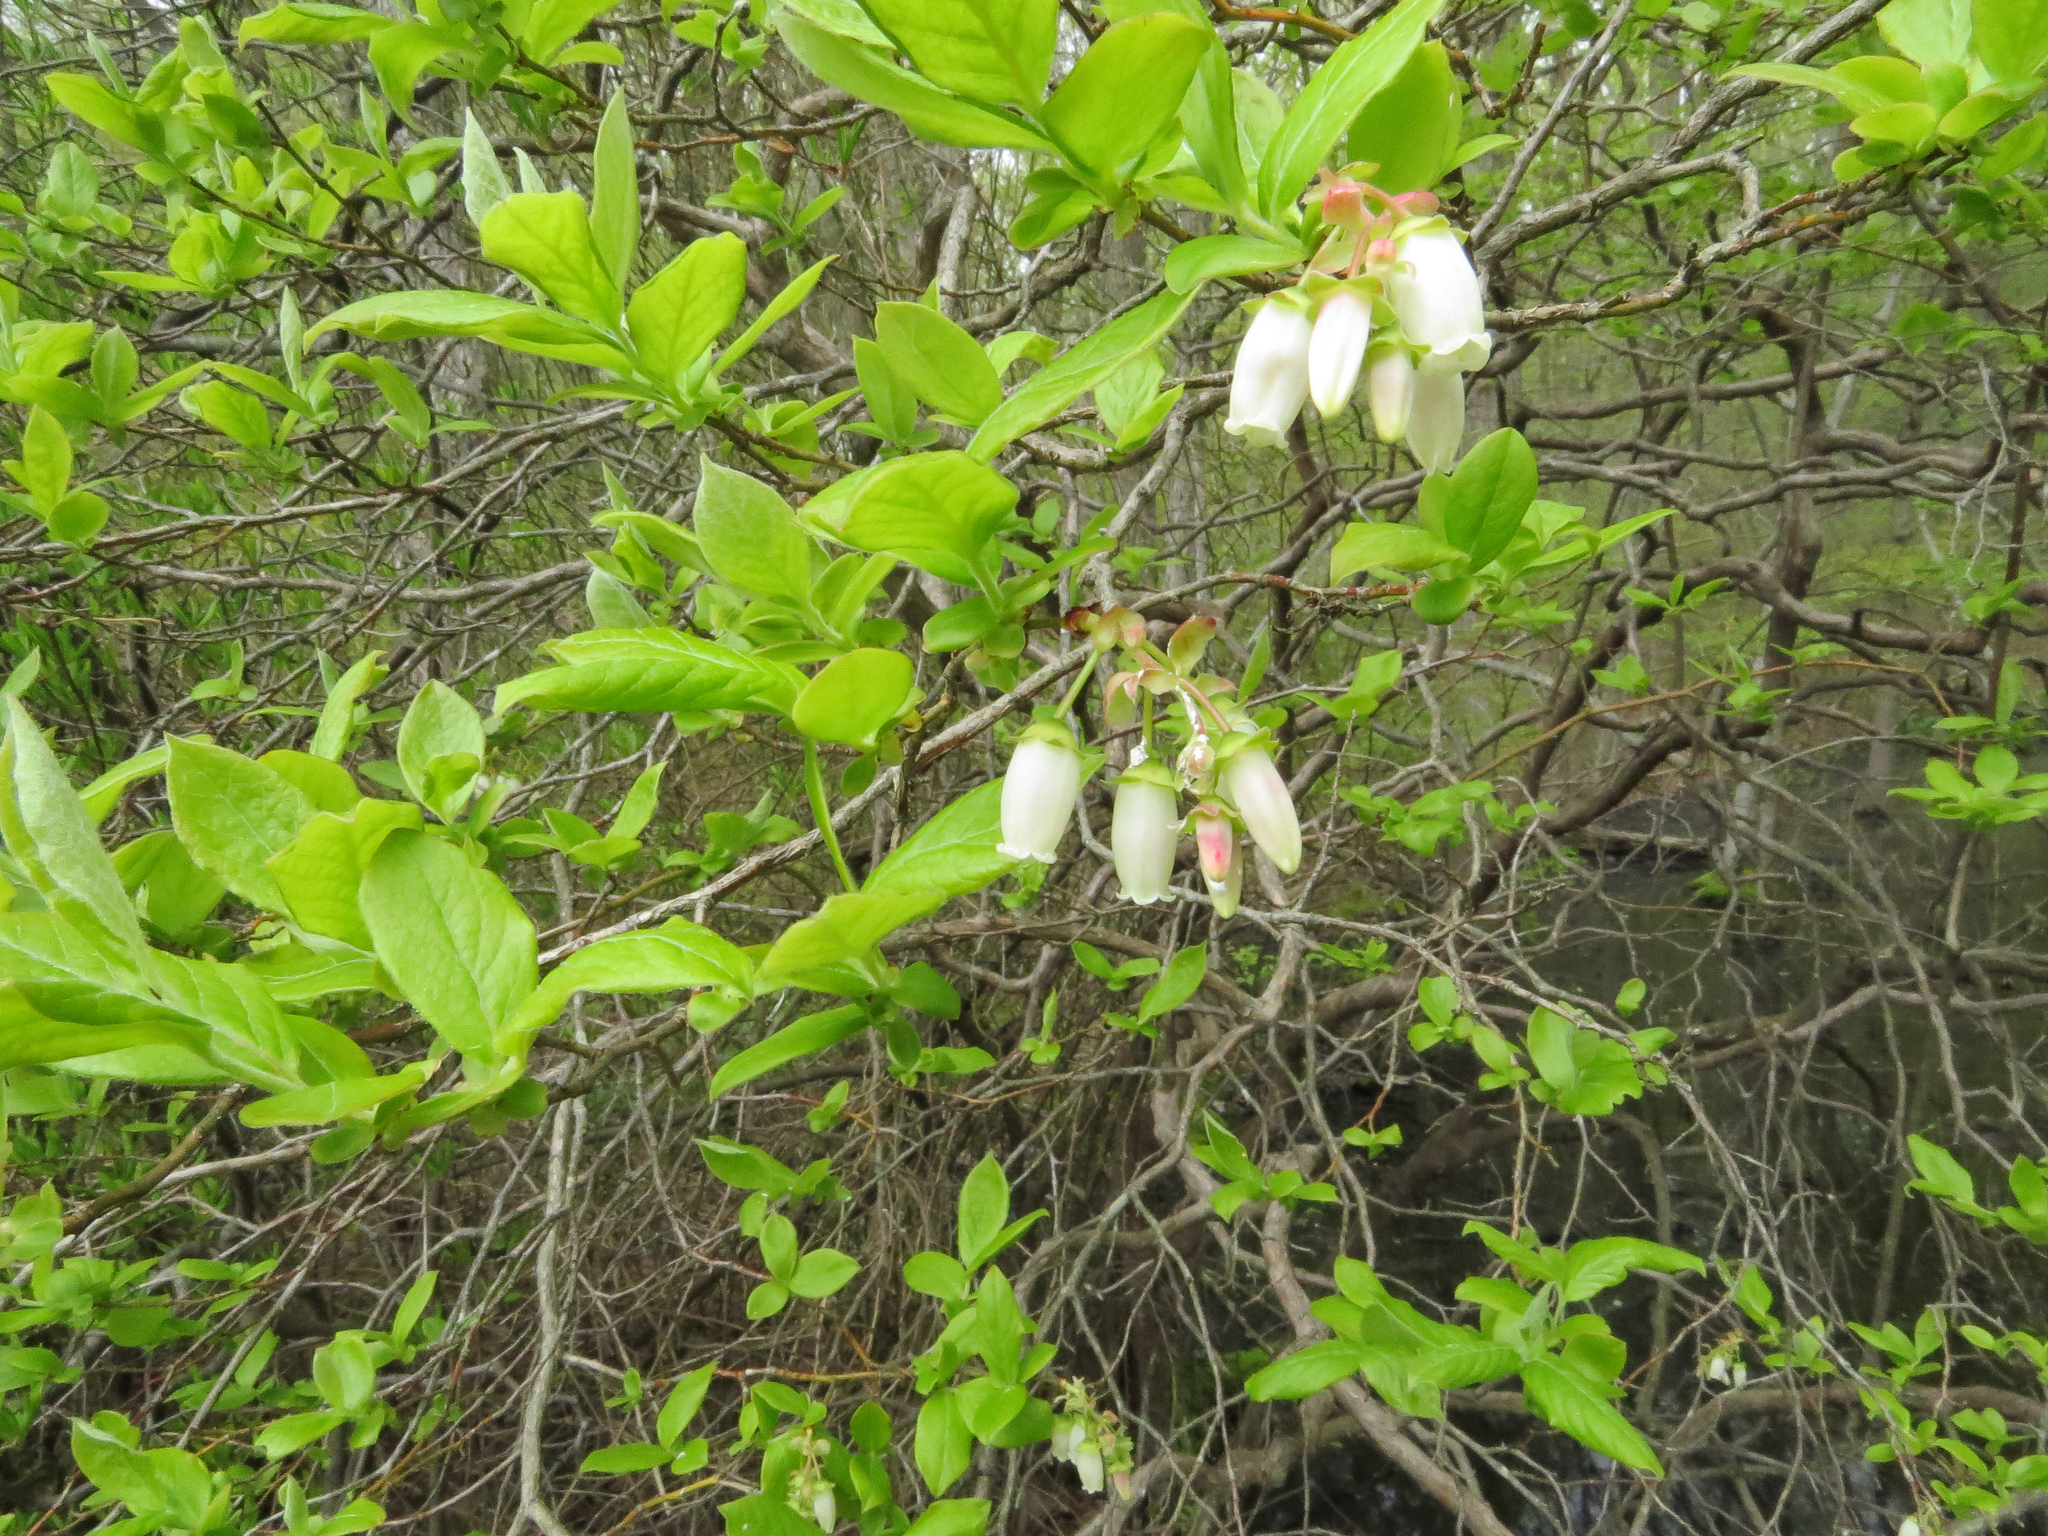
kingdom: Plantae
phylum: Tracheophyta
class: Magnoliopsida
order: Ericales
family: Ericaceae
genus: Vaccinium
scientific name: Vaccinium corymbosum
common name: Blueberry
